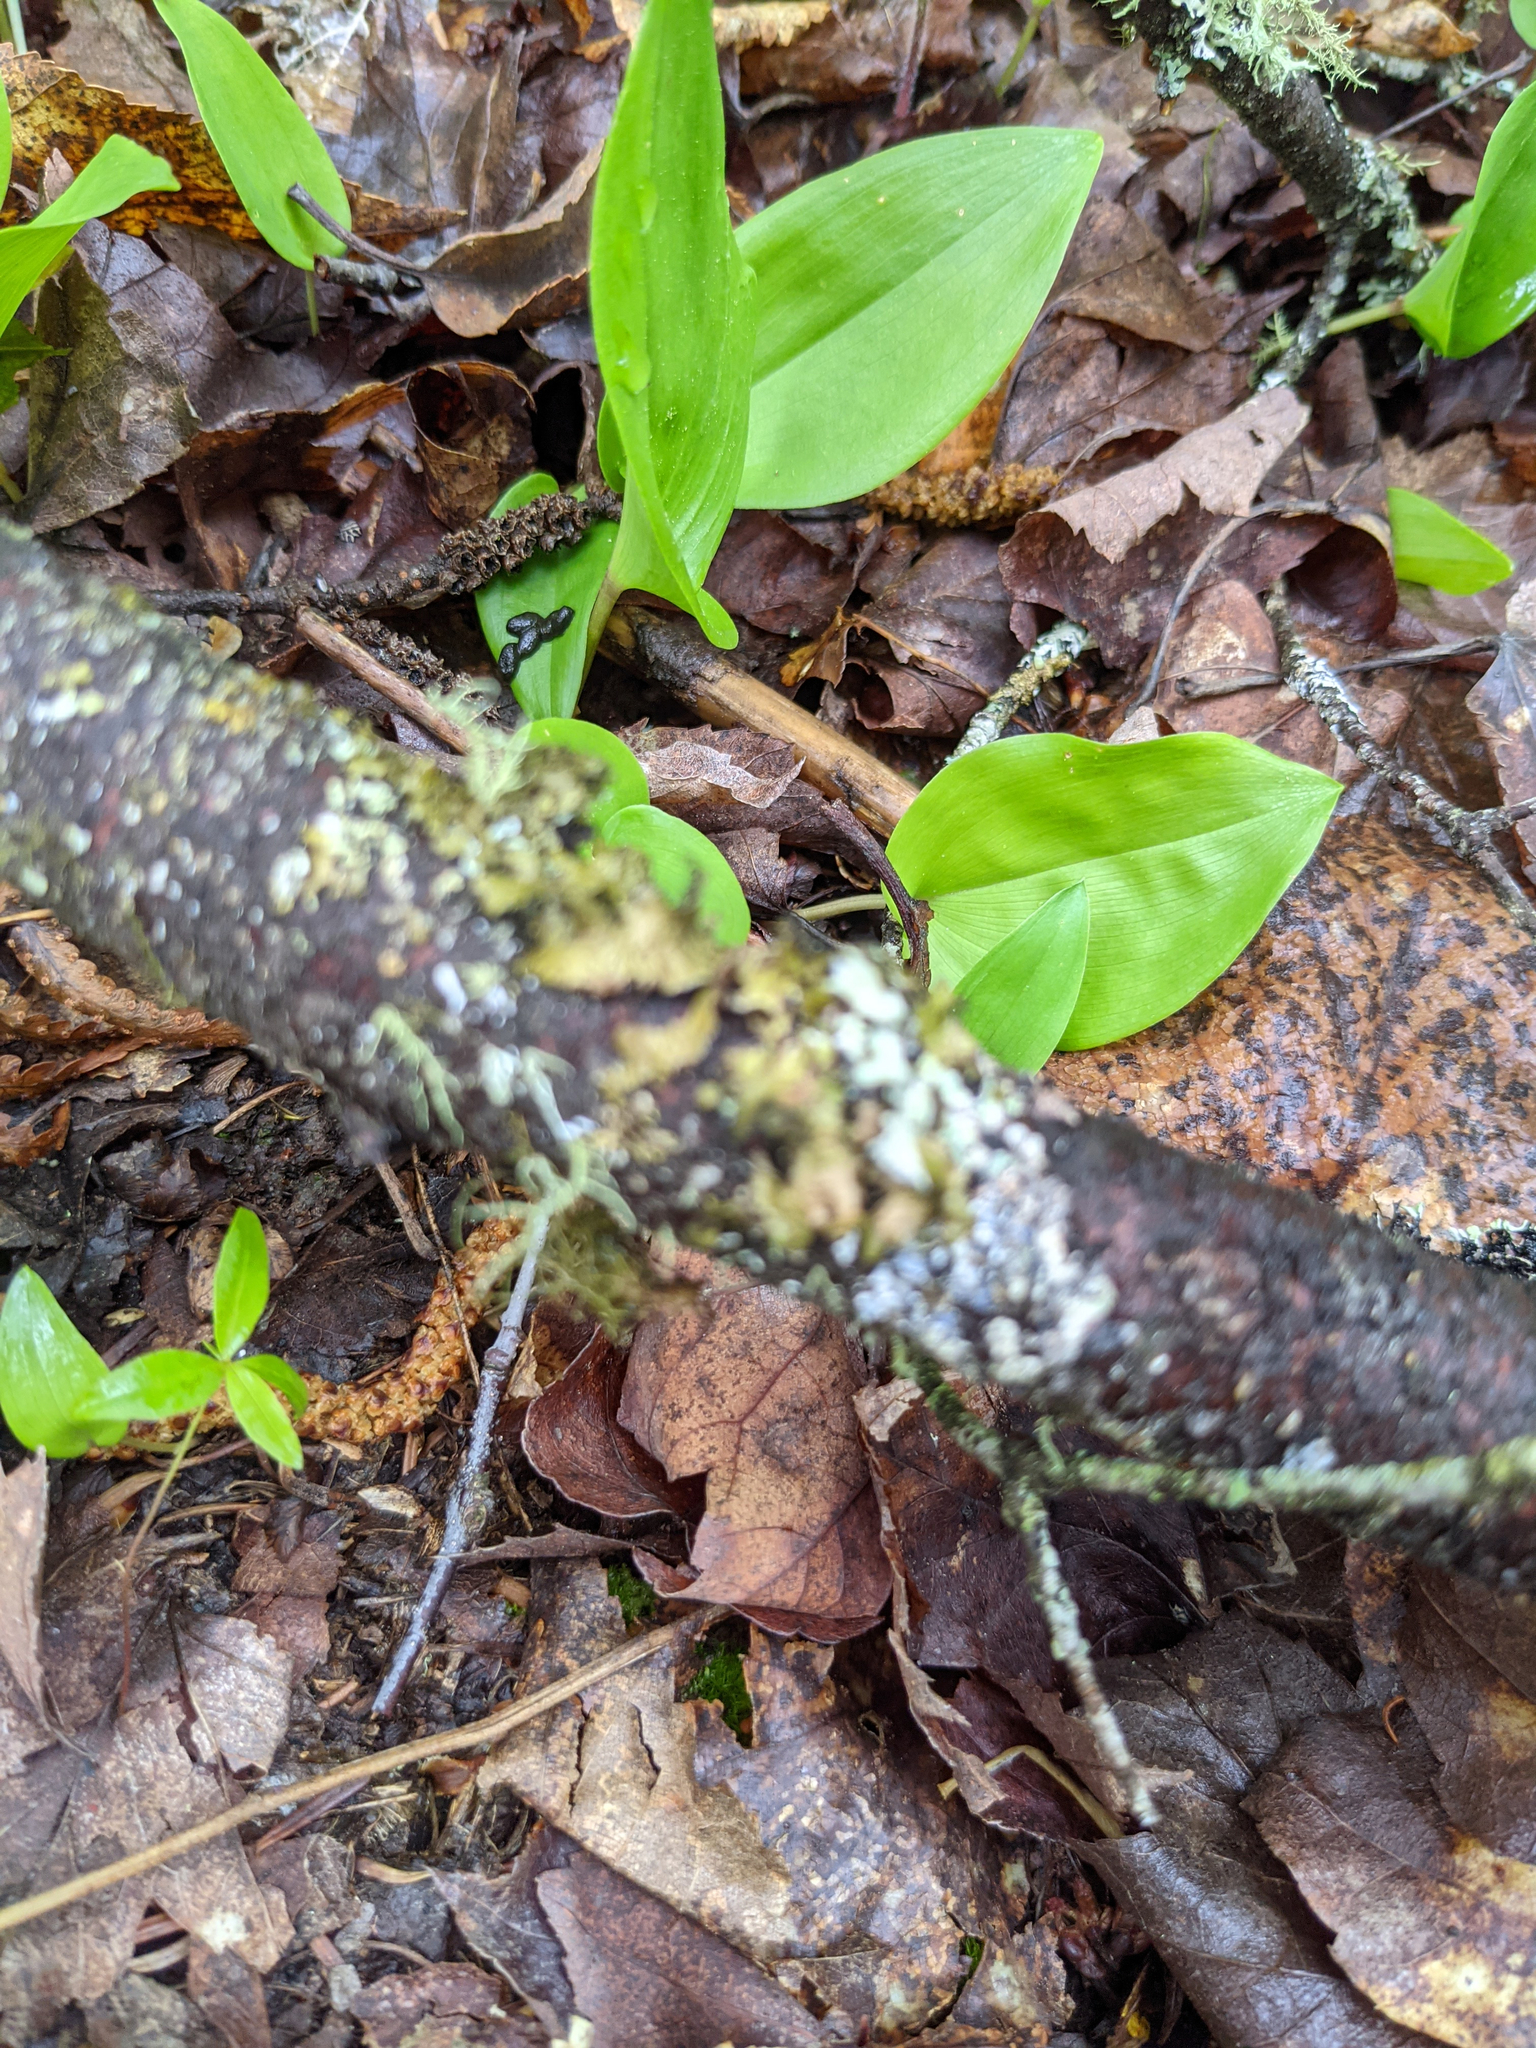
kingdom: Plantae
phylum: Tracheophyta
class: Liliopsida
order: Asparagales
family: Asparagaceae
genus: Maianthemum
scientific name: Maianthemum canadense
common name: False lily-of-the-valley
